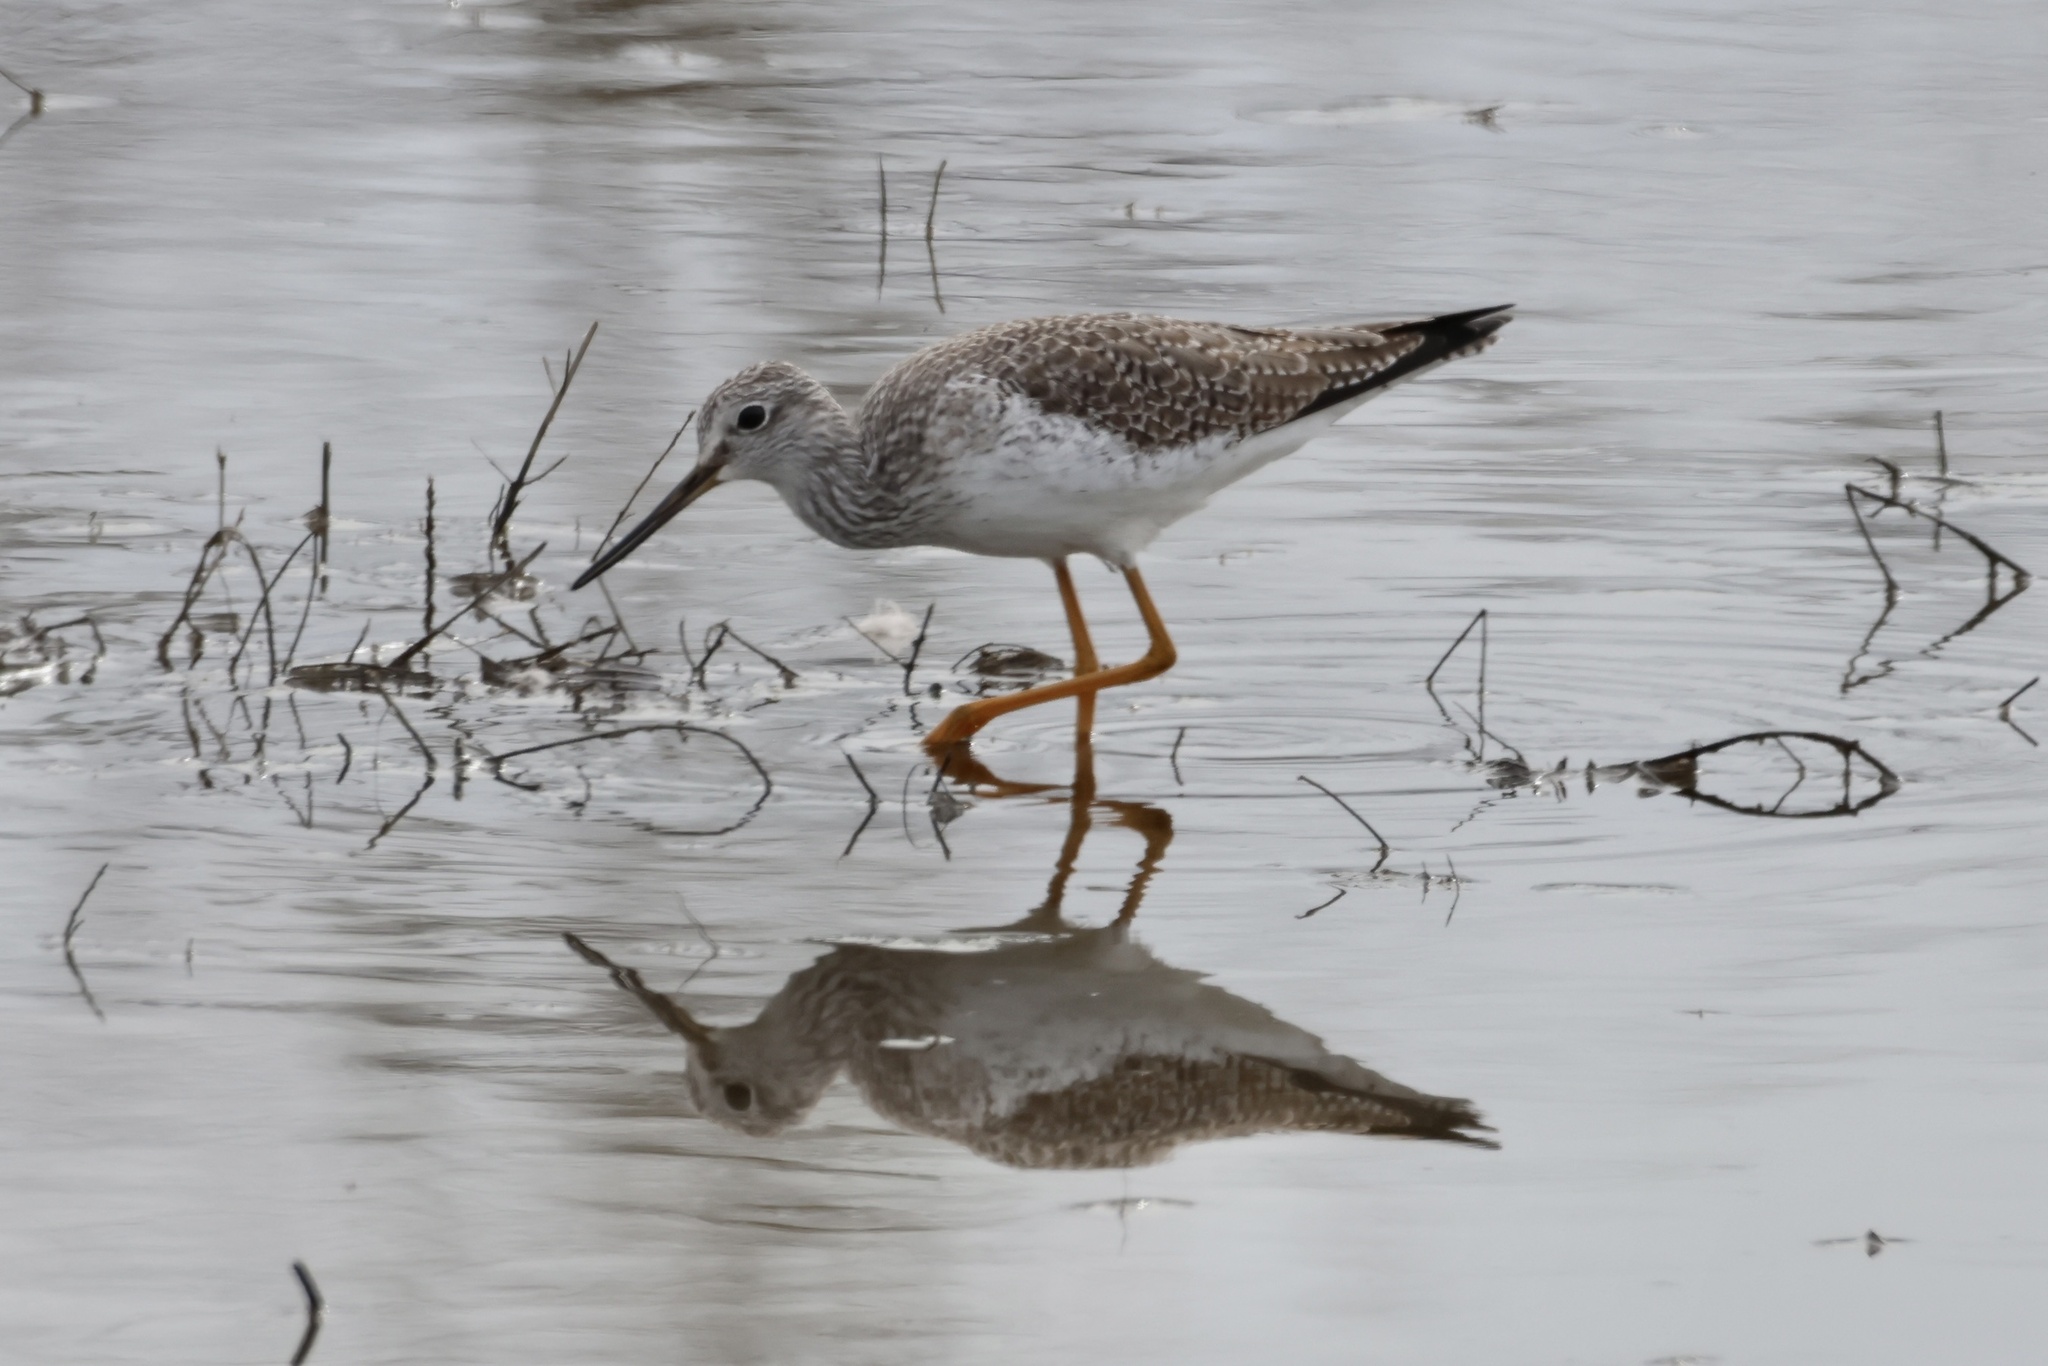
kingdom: Animalia
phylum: Chordata
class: Aves
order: Charadriiformes
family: Scolopacidae
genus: Tringa
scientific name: Tringa melanoleuca
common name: Greater yellowlegs
